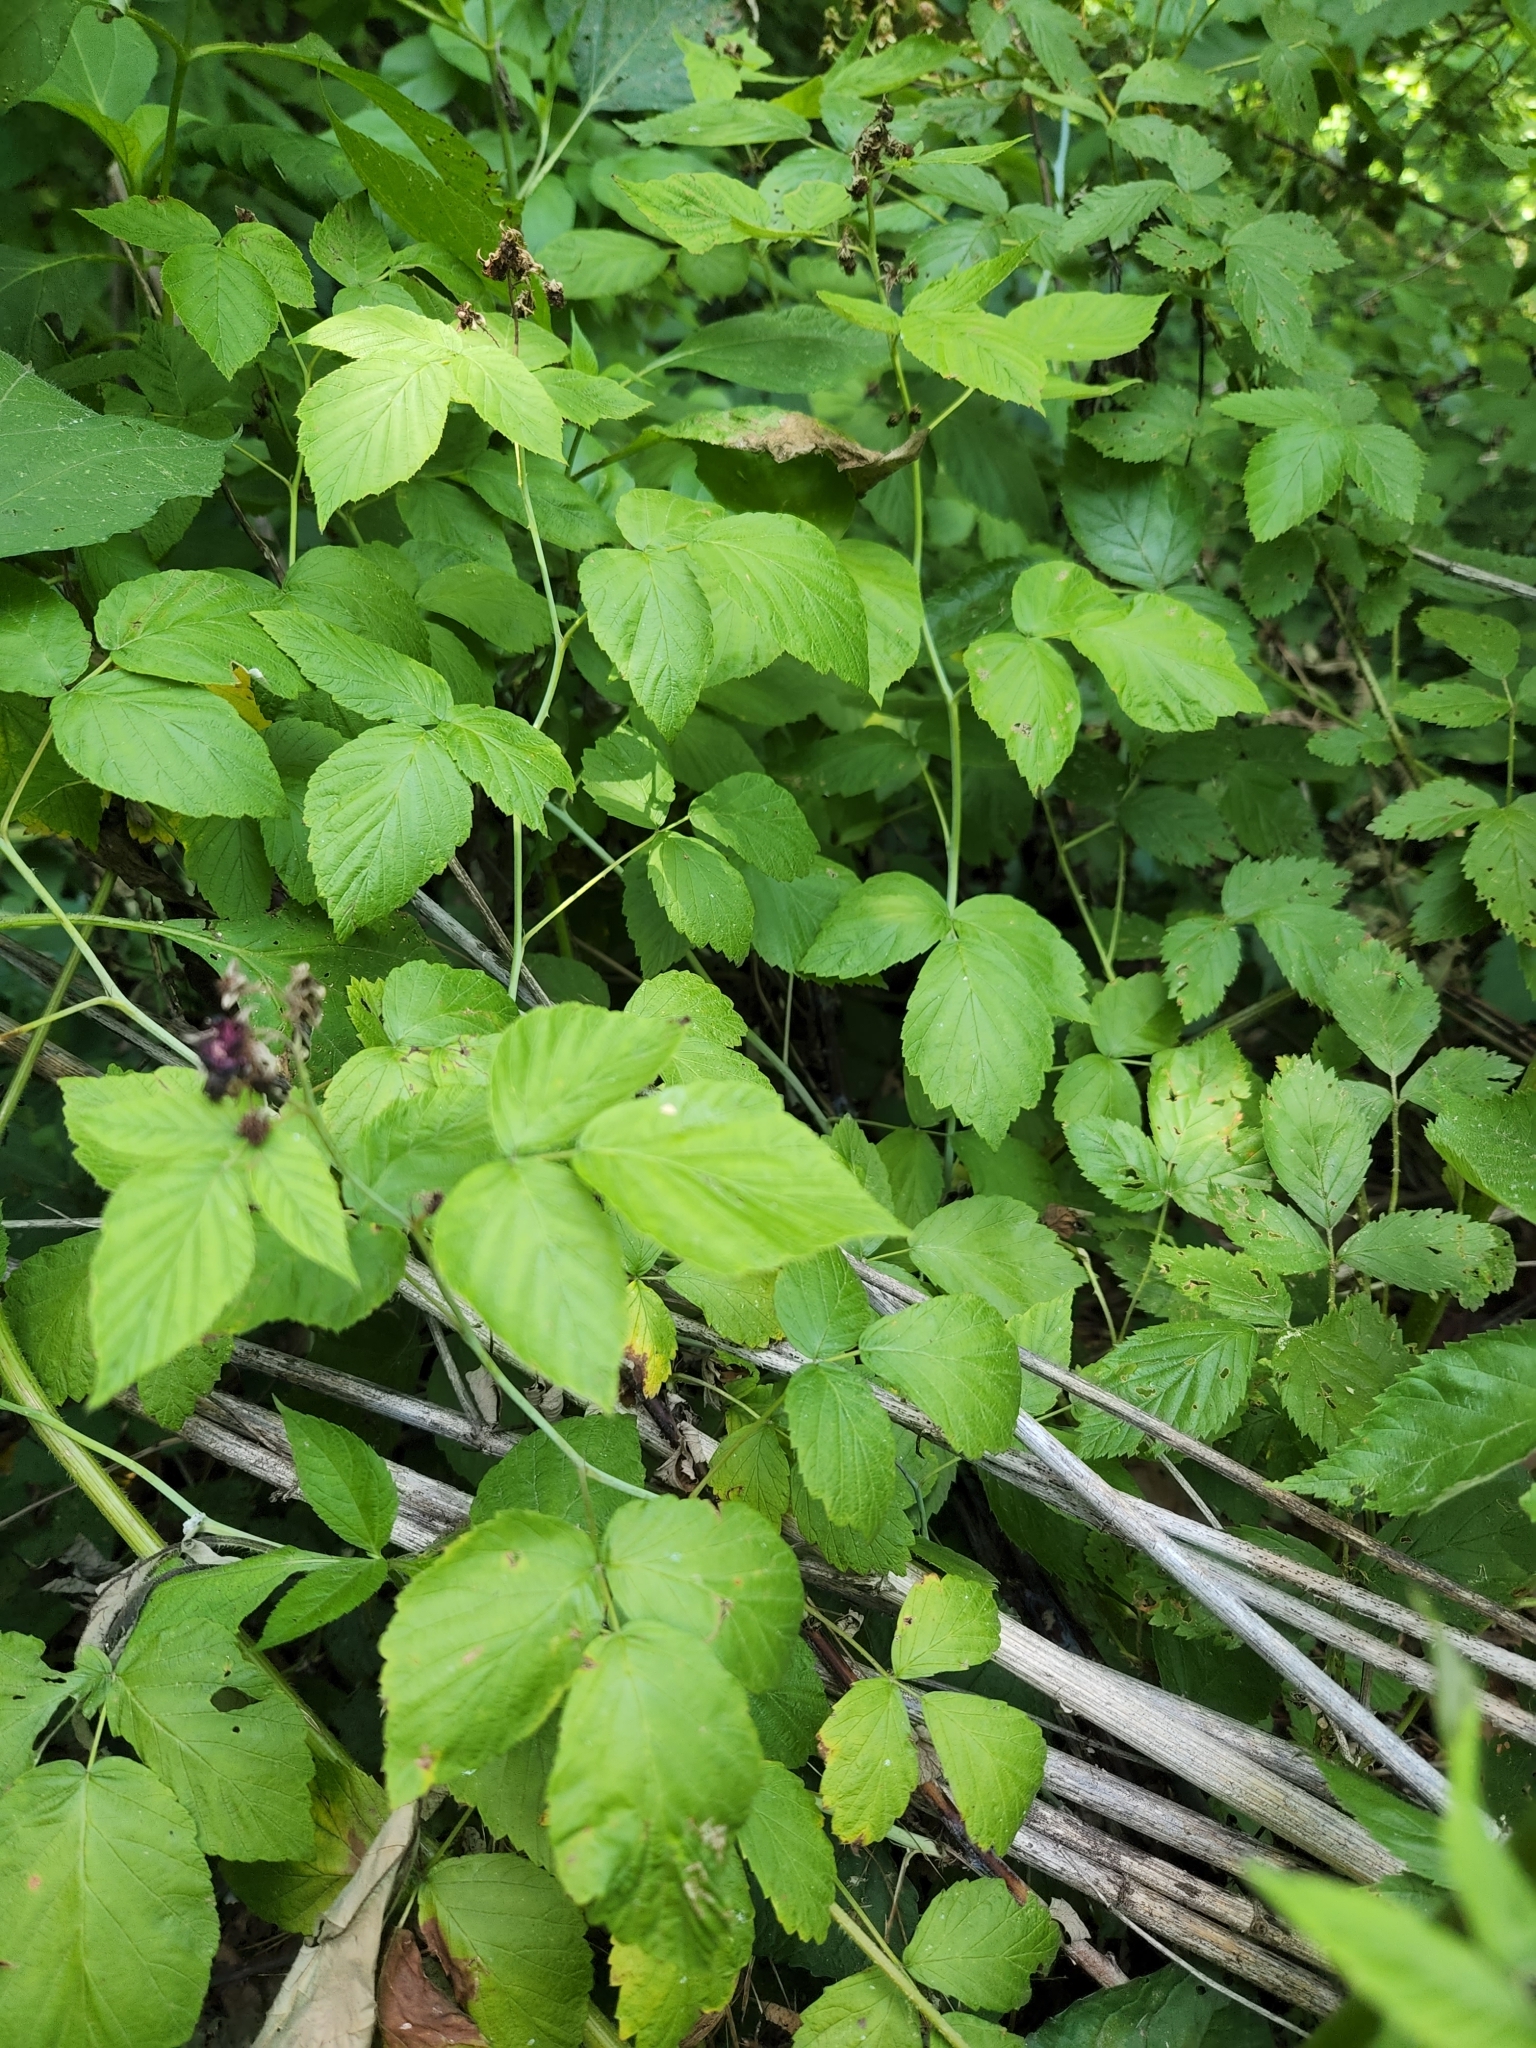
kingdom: Plantae
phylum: Tracheophyta
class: Magnoliopsida
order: Rosales
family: Rosaceae
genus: Rubus
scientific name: Rubus occidentalis
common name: Black raspberry
